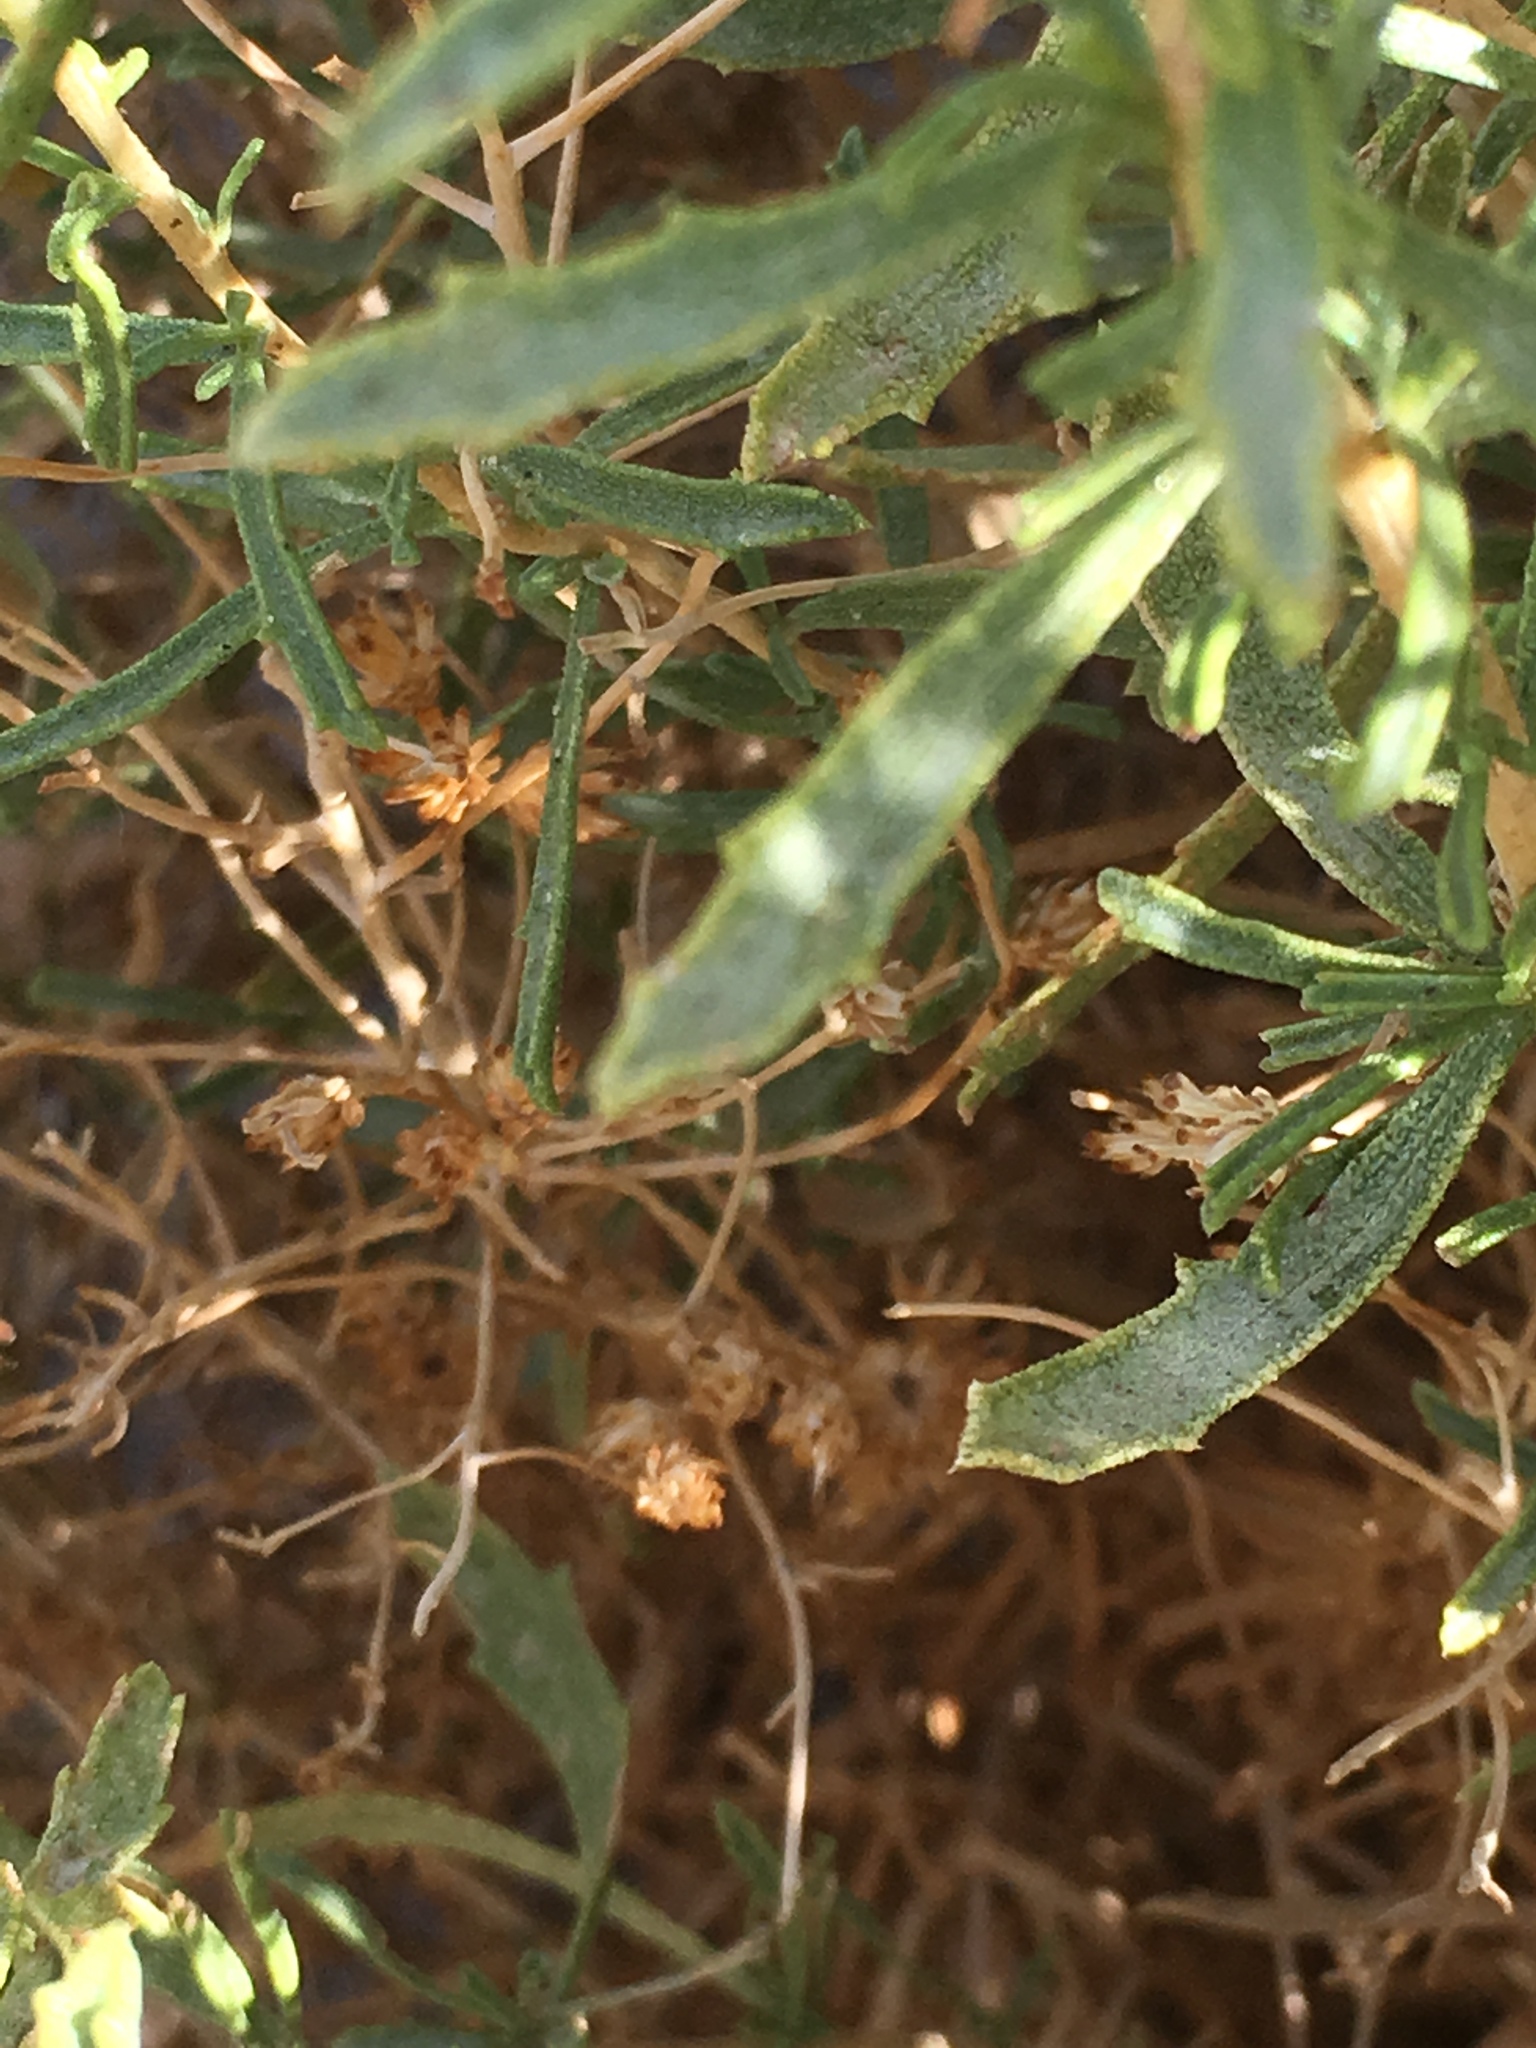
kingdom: Plantae
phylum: Tracheophyta
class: Magnoliopsida
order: Asterales
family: Asteraceae
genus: Isocoma
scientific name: Isocoma acradenia
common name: Alkali jimmyweed
